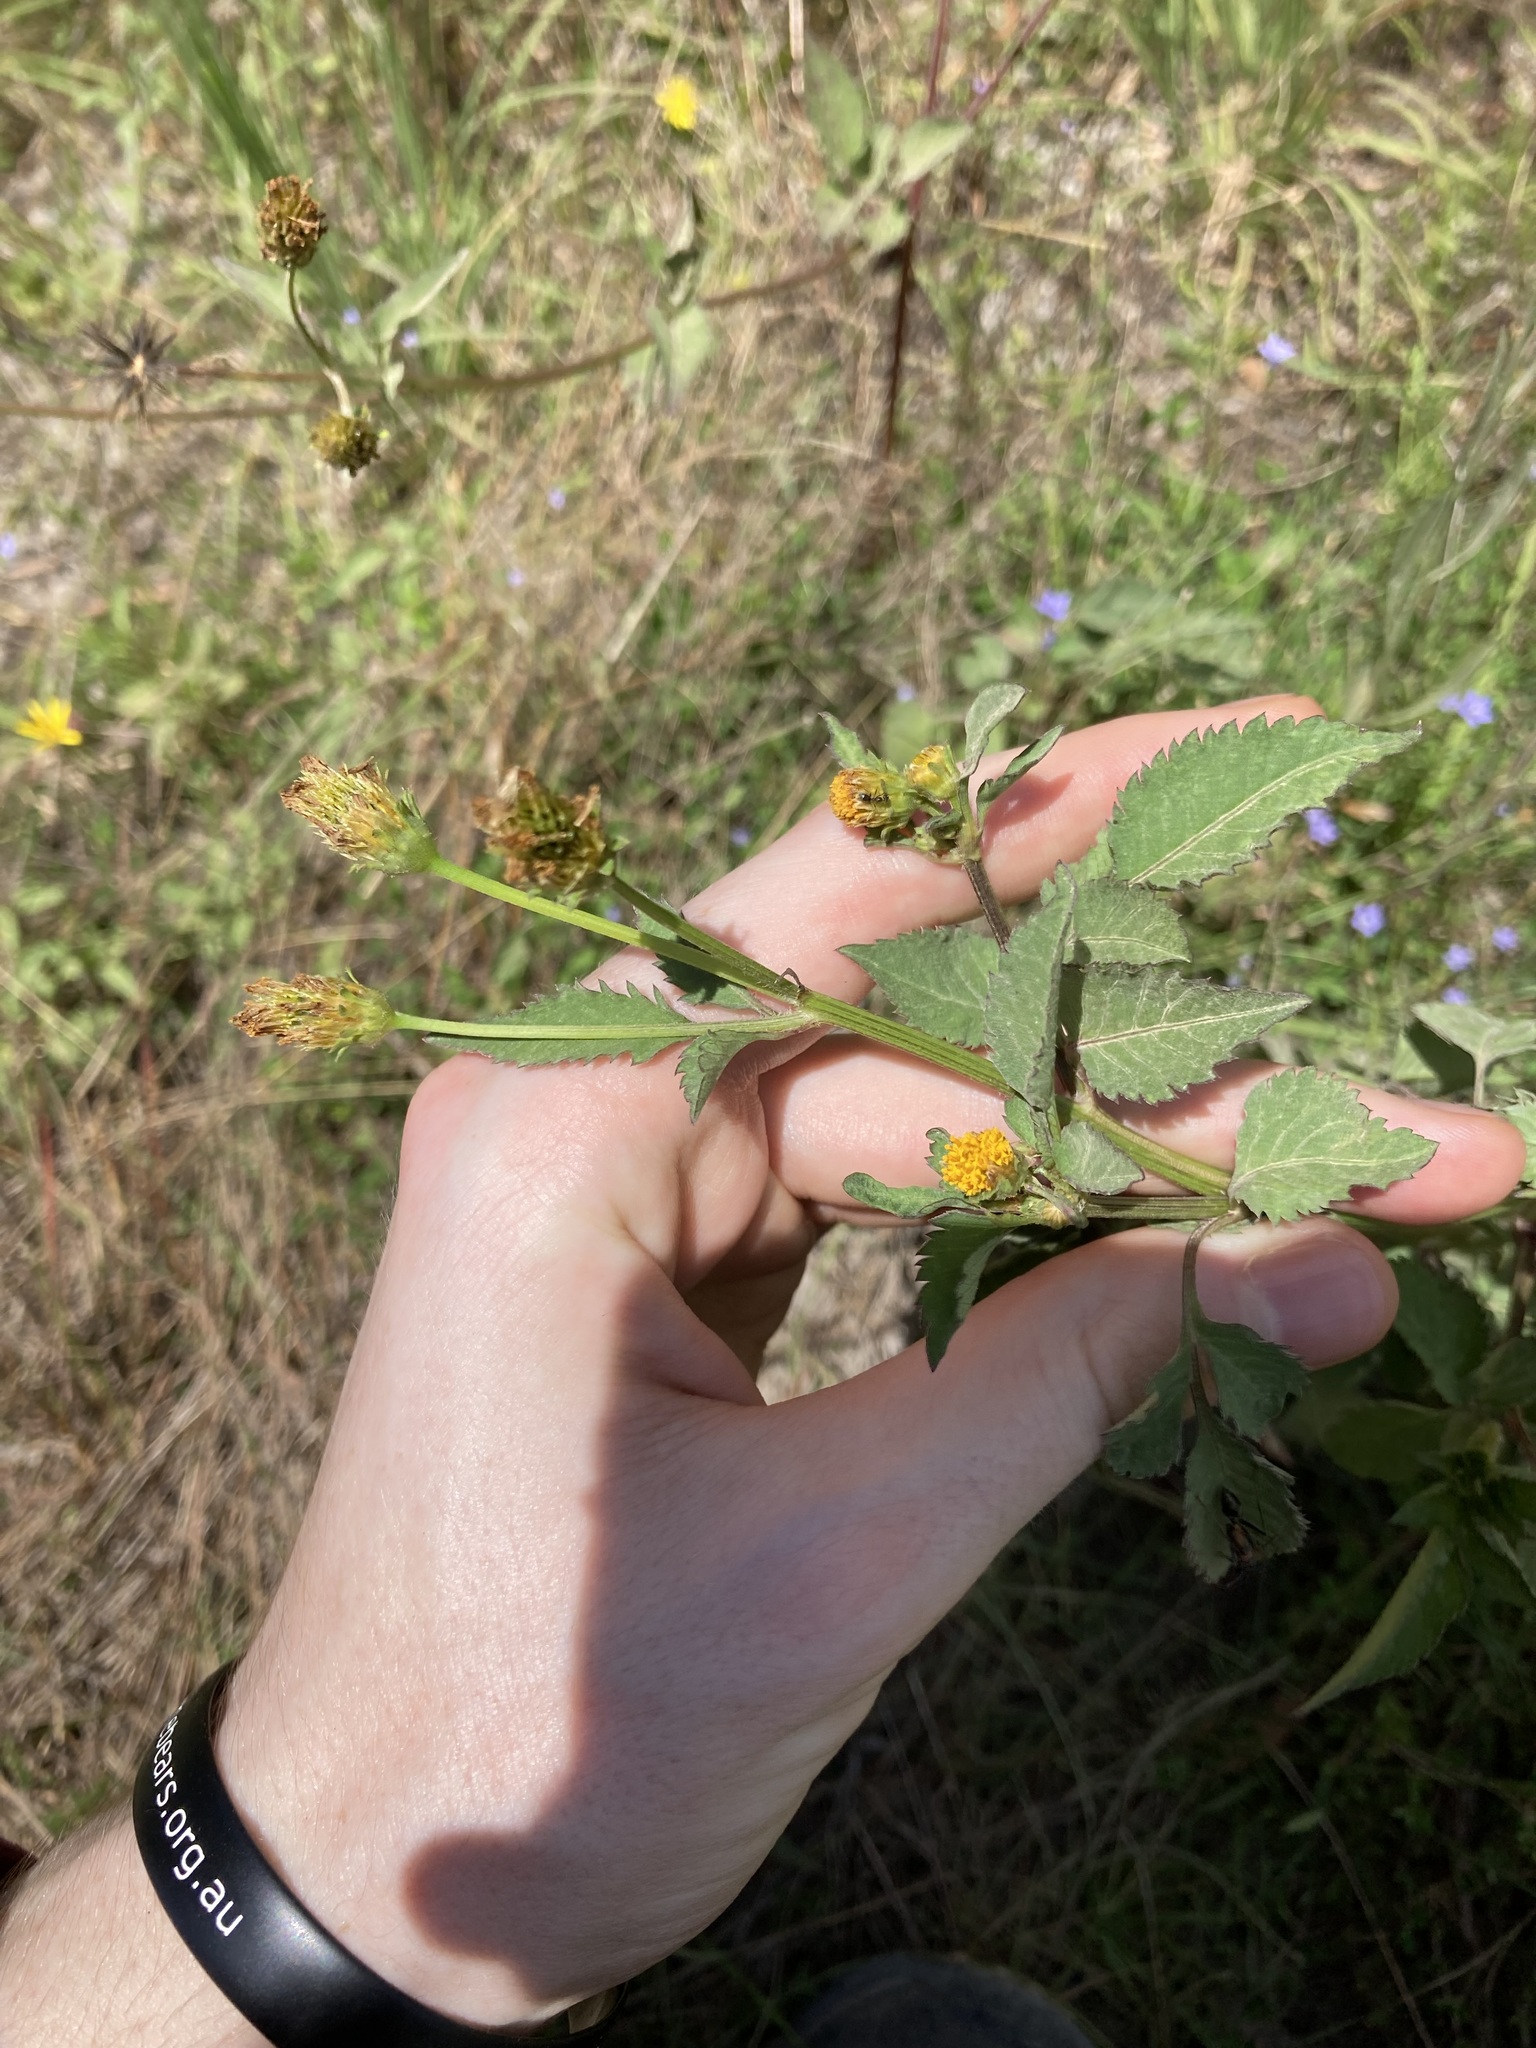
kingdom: Plantae
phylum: Tracheophyta
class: Magnoliopsida
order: Asterales
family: Asteraceae
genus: Bidens
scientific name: Bidens pilosa
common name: Black-jack
